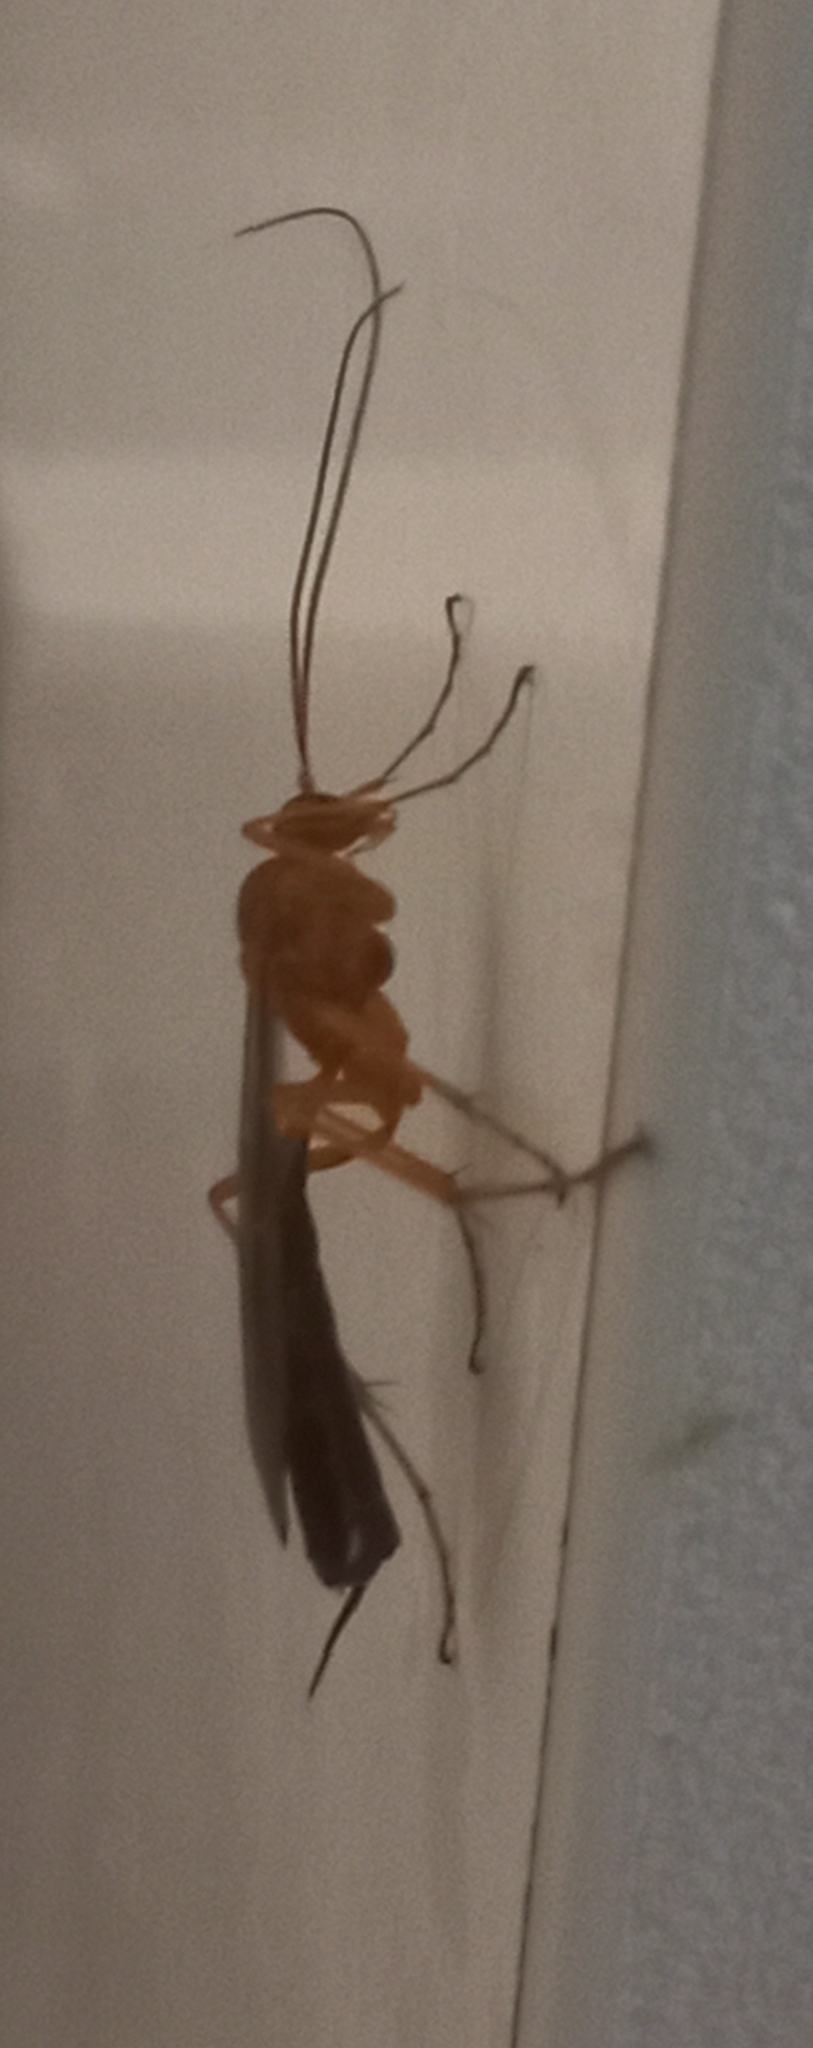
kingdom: Animalia
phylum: Arthropoda
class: Insecta
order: Hymenoptera
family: Ichneumonidae
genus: Netelia
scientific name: Netelia ephippiata
